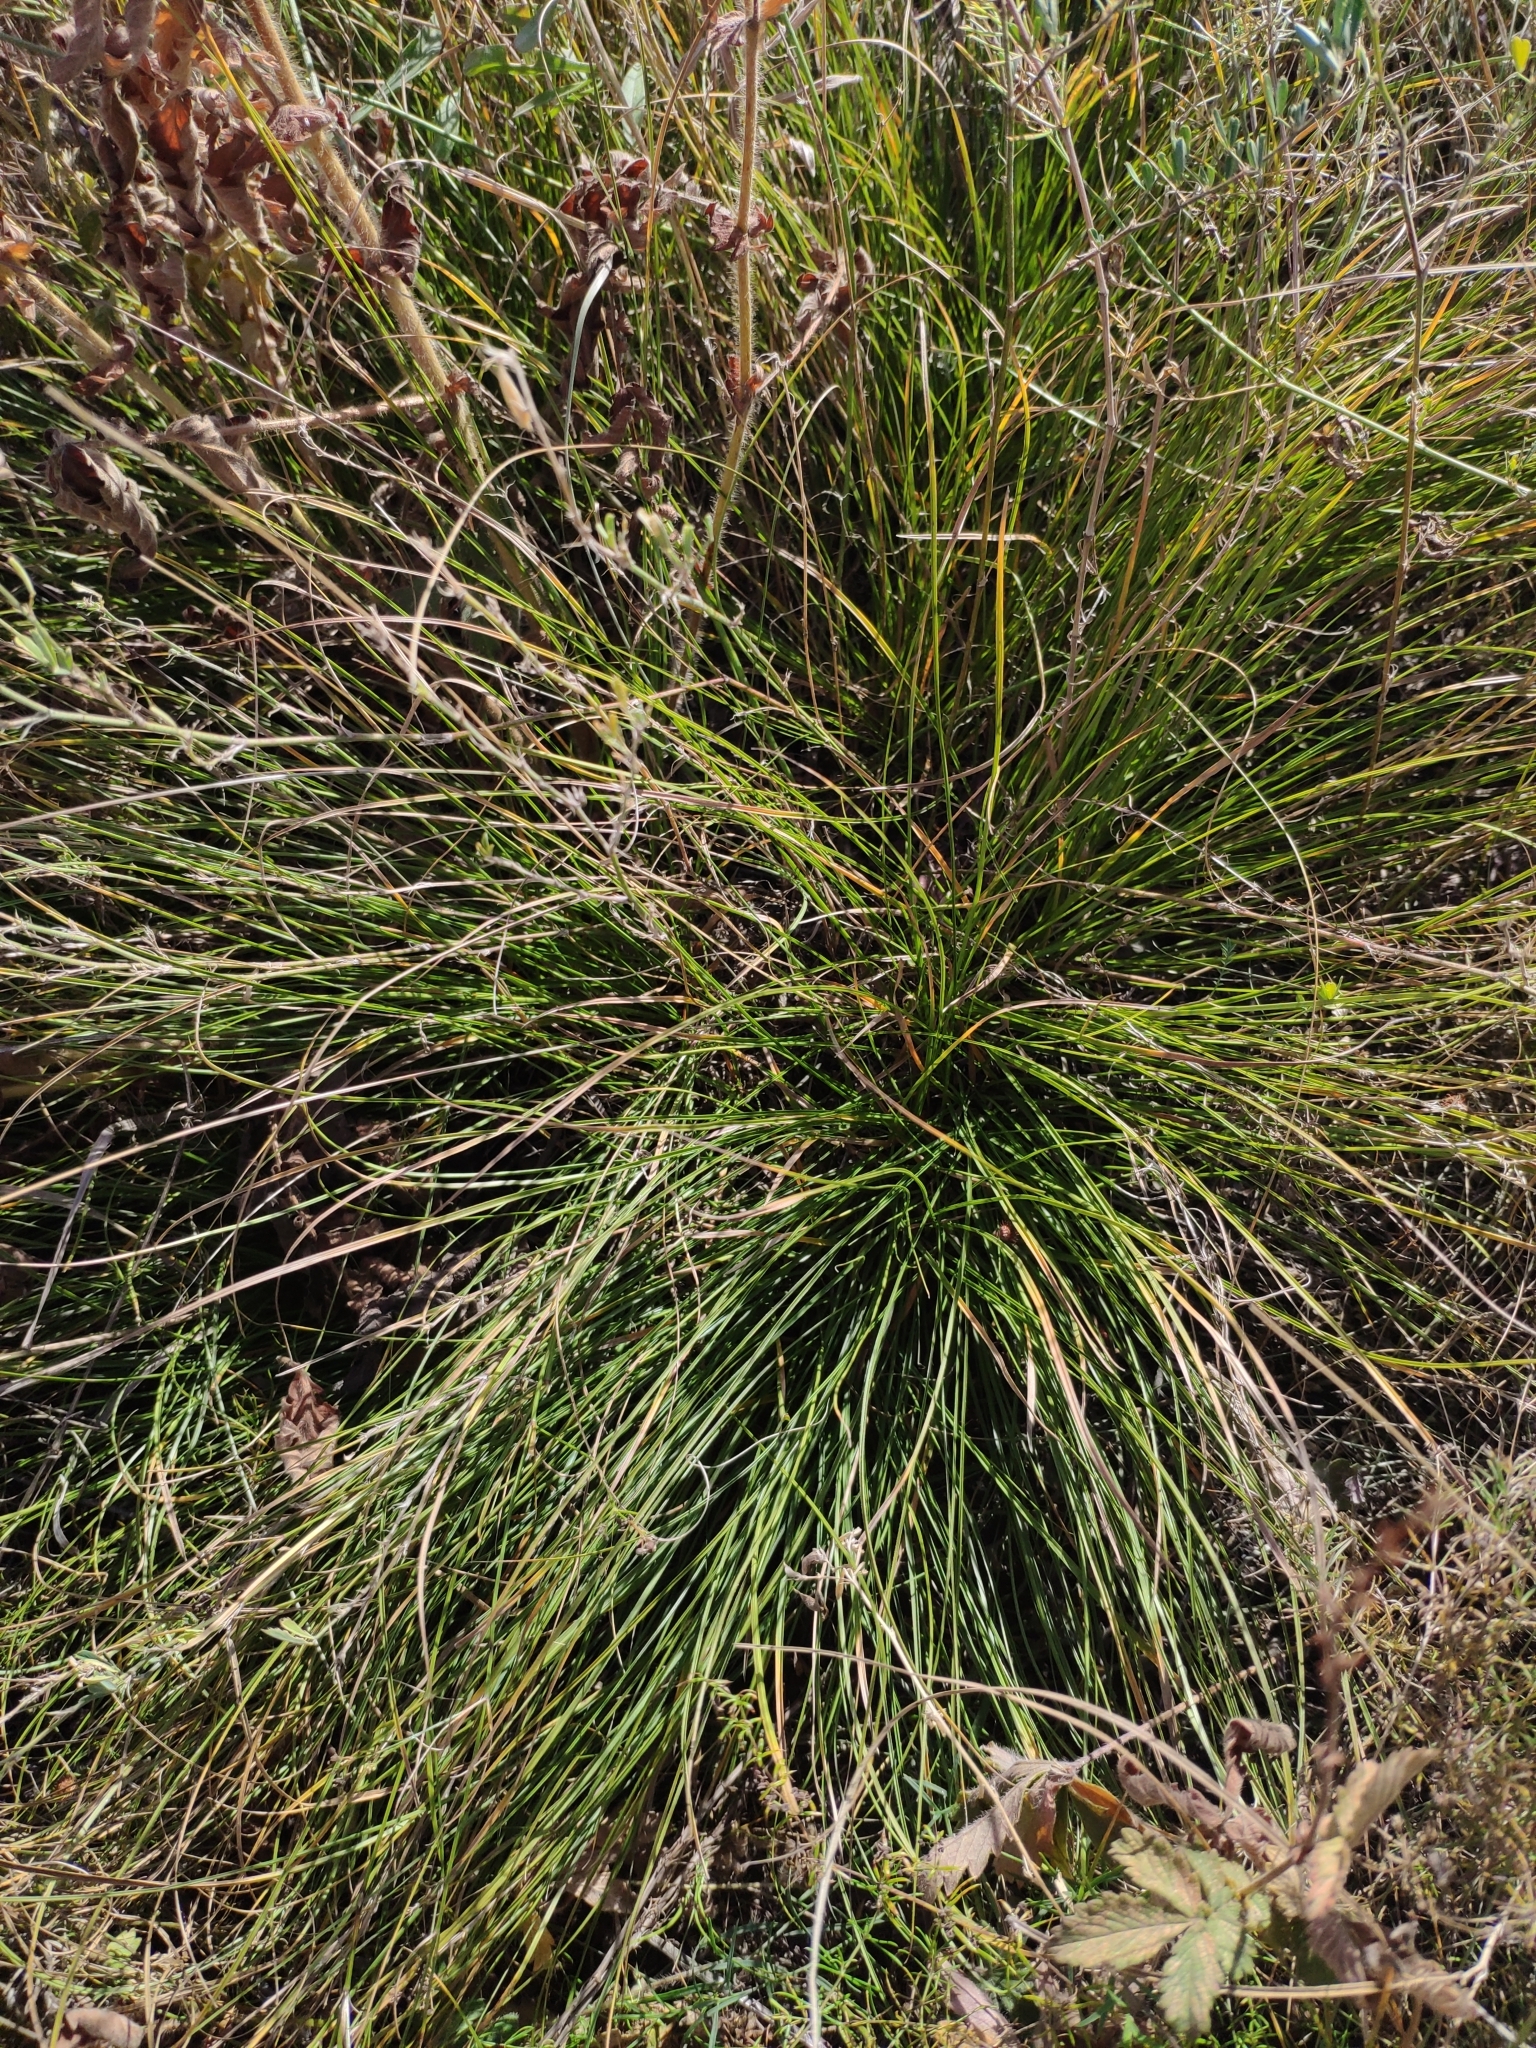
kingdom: Plantae
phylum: Tracheophyta
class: Liliopsida
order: Poales
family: Cyperaceae
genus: Carex
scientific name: Carex humilis
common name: Dwarf sedge
